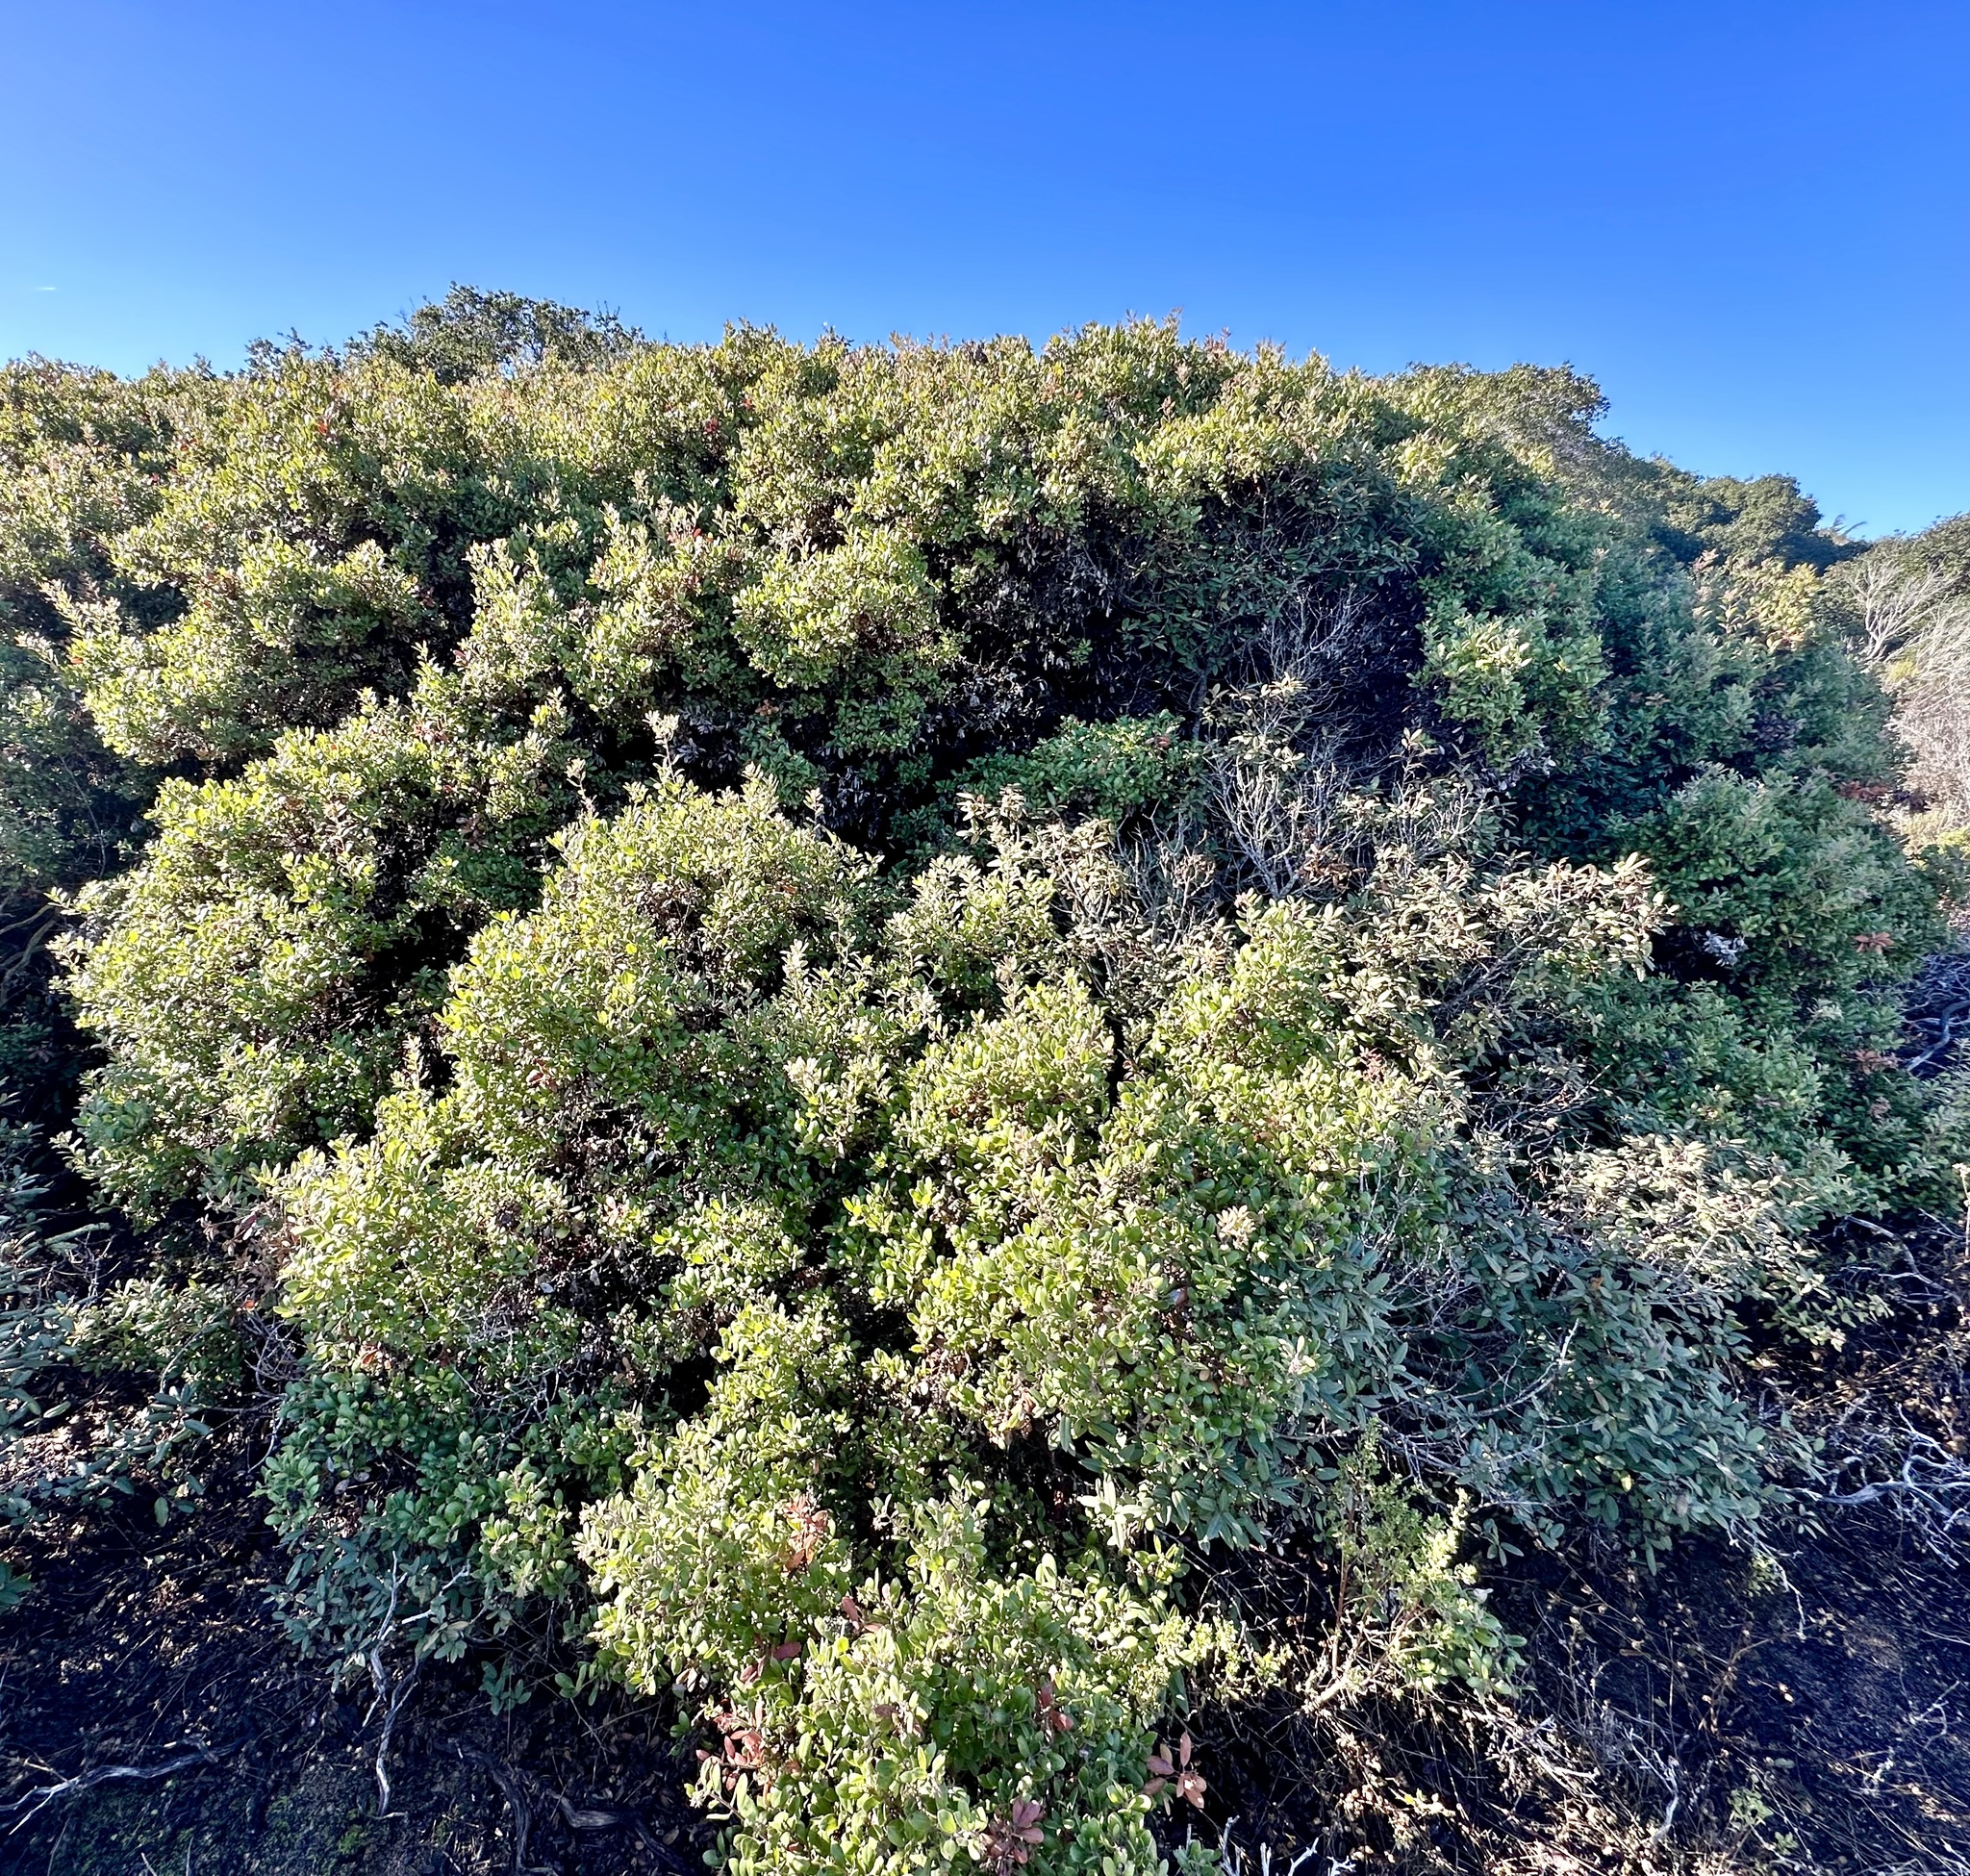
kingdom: Plantae
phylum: Tracheophyta
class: Magnoliopsida
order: Ericales
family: Ericaceae
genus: Arctostaphylos
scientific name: Arctostaphylos tomentosa
